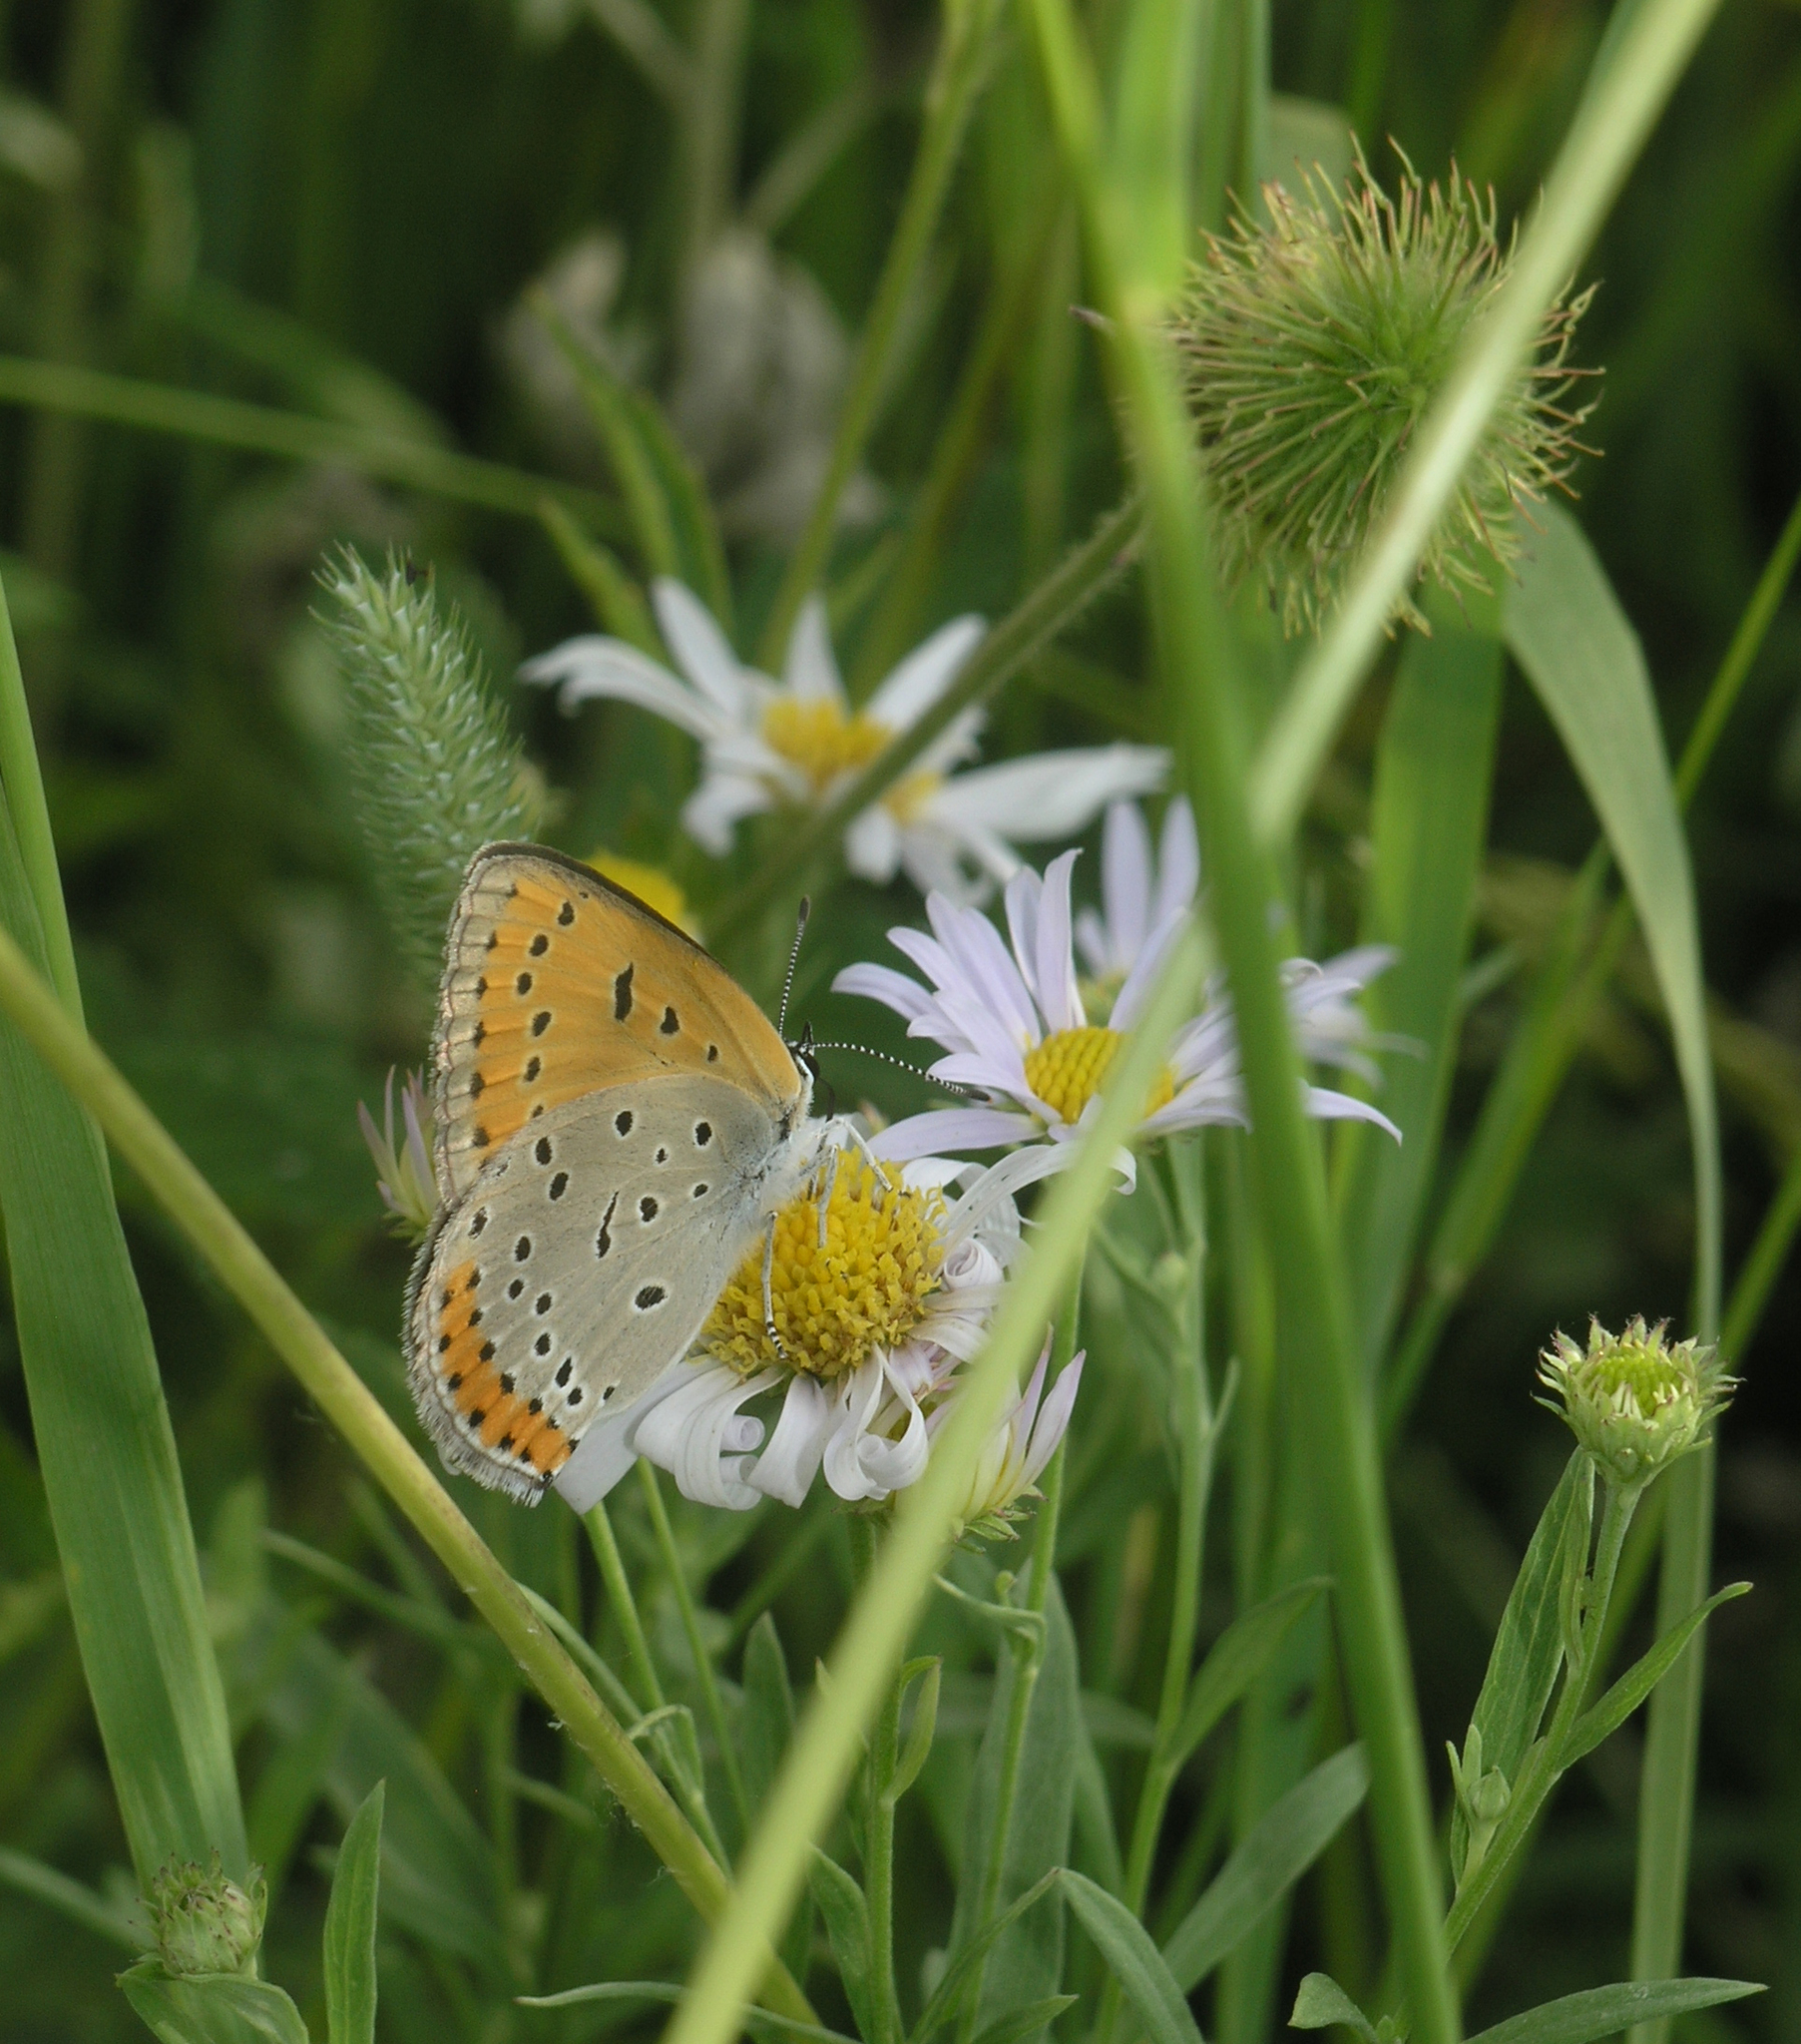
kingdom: Animalia
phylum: Arthropoda
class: Insecta
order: Lepidoptera
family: Lycaenidae
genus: Lycaena
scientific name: Lycaena dispar
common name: Large copper
